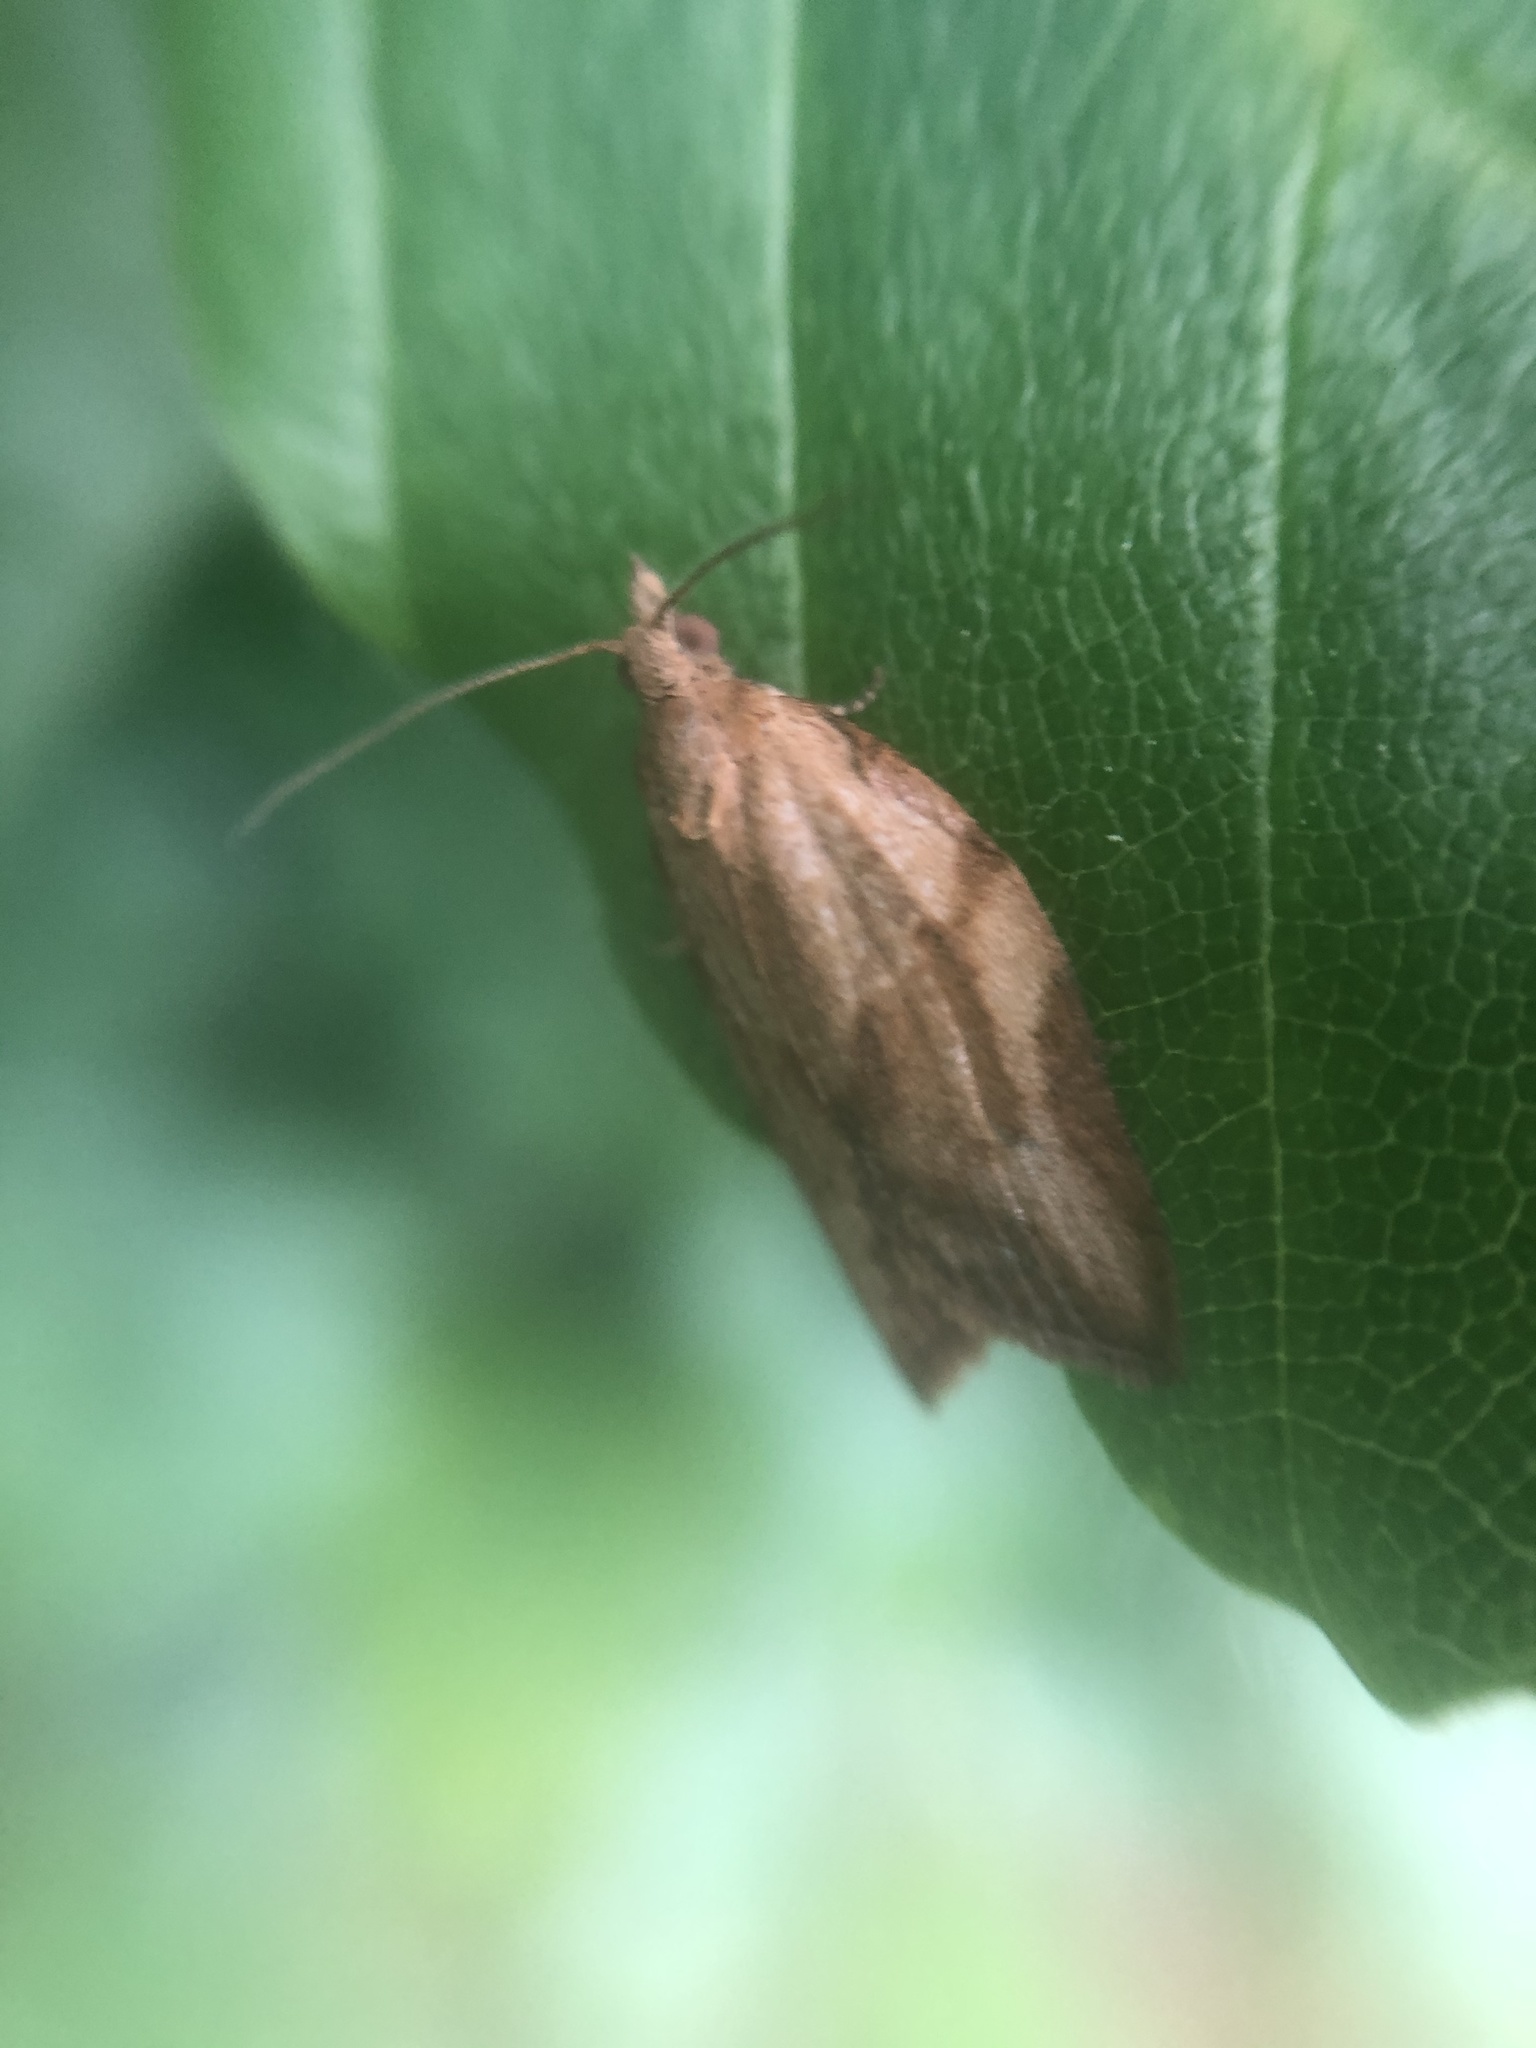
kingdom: Animalia
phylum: Arthropoda
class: Insecta
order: Lepidoptera
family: Tortricidae
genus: Epiphyas
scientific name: Epiphyas postvittana
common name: Light brown apple moth
